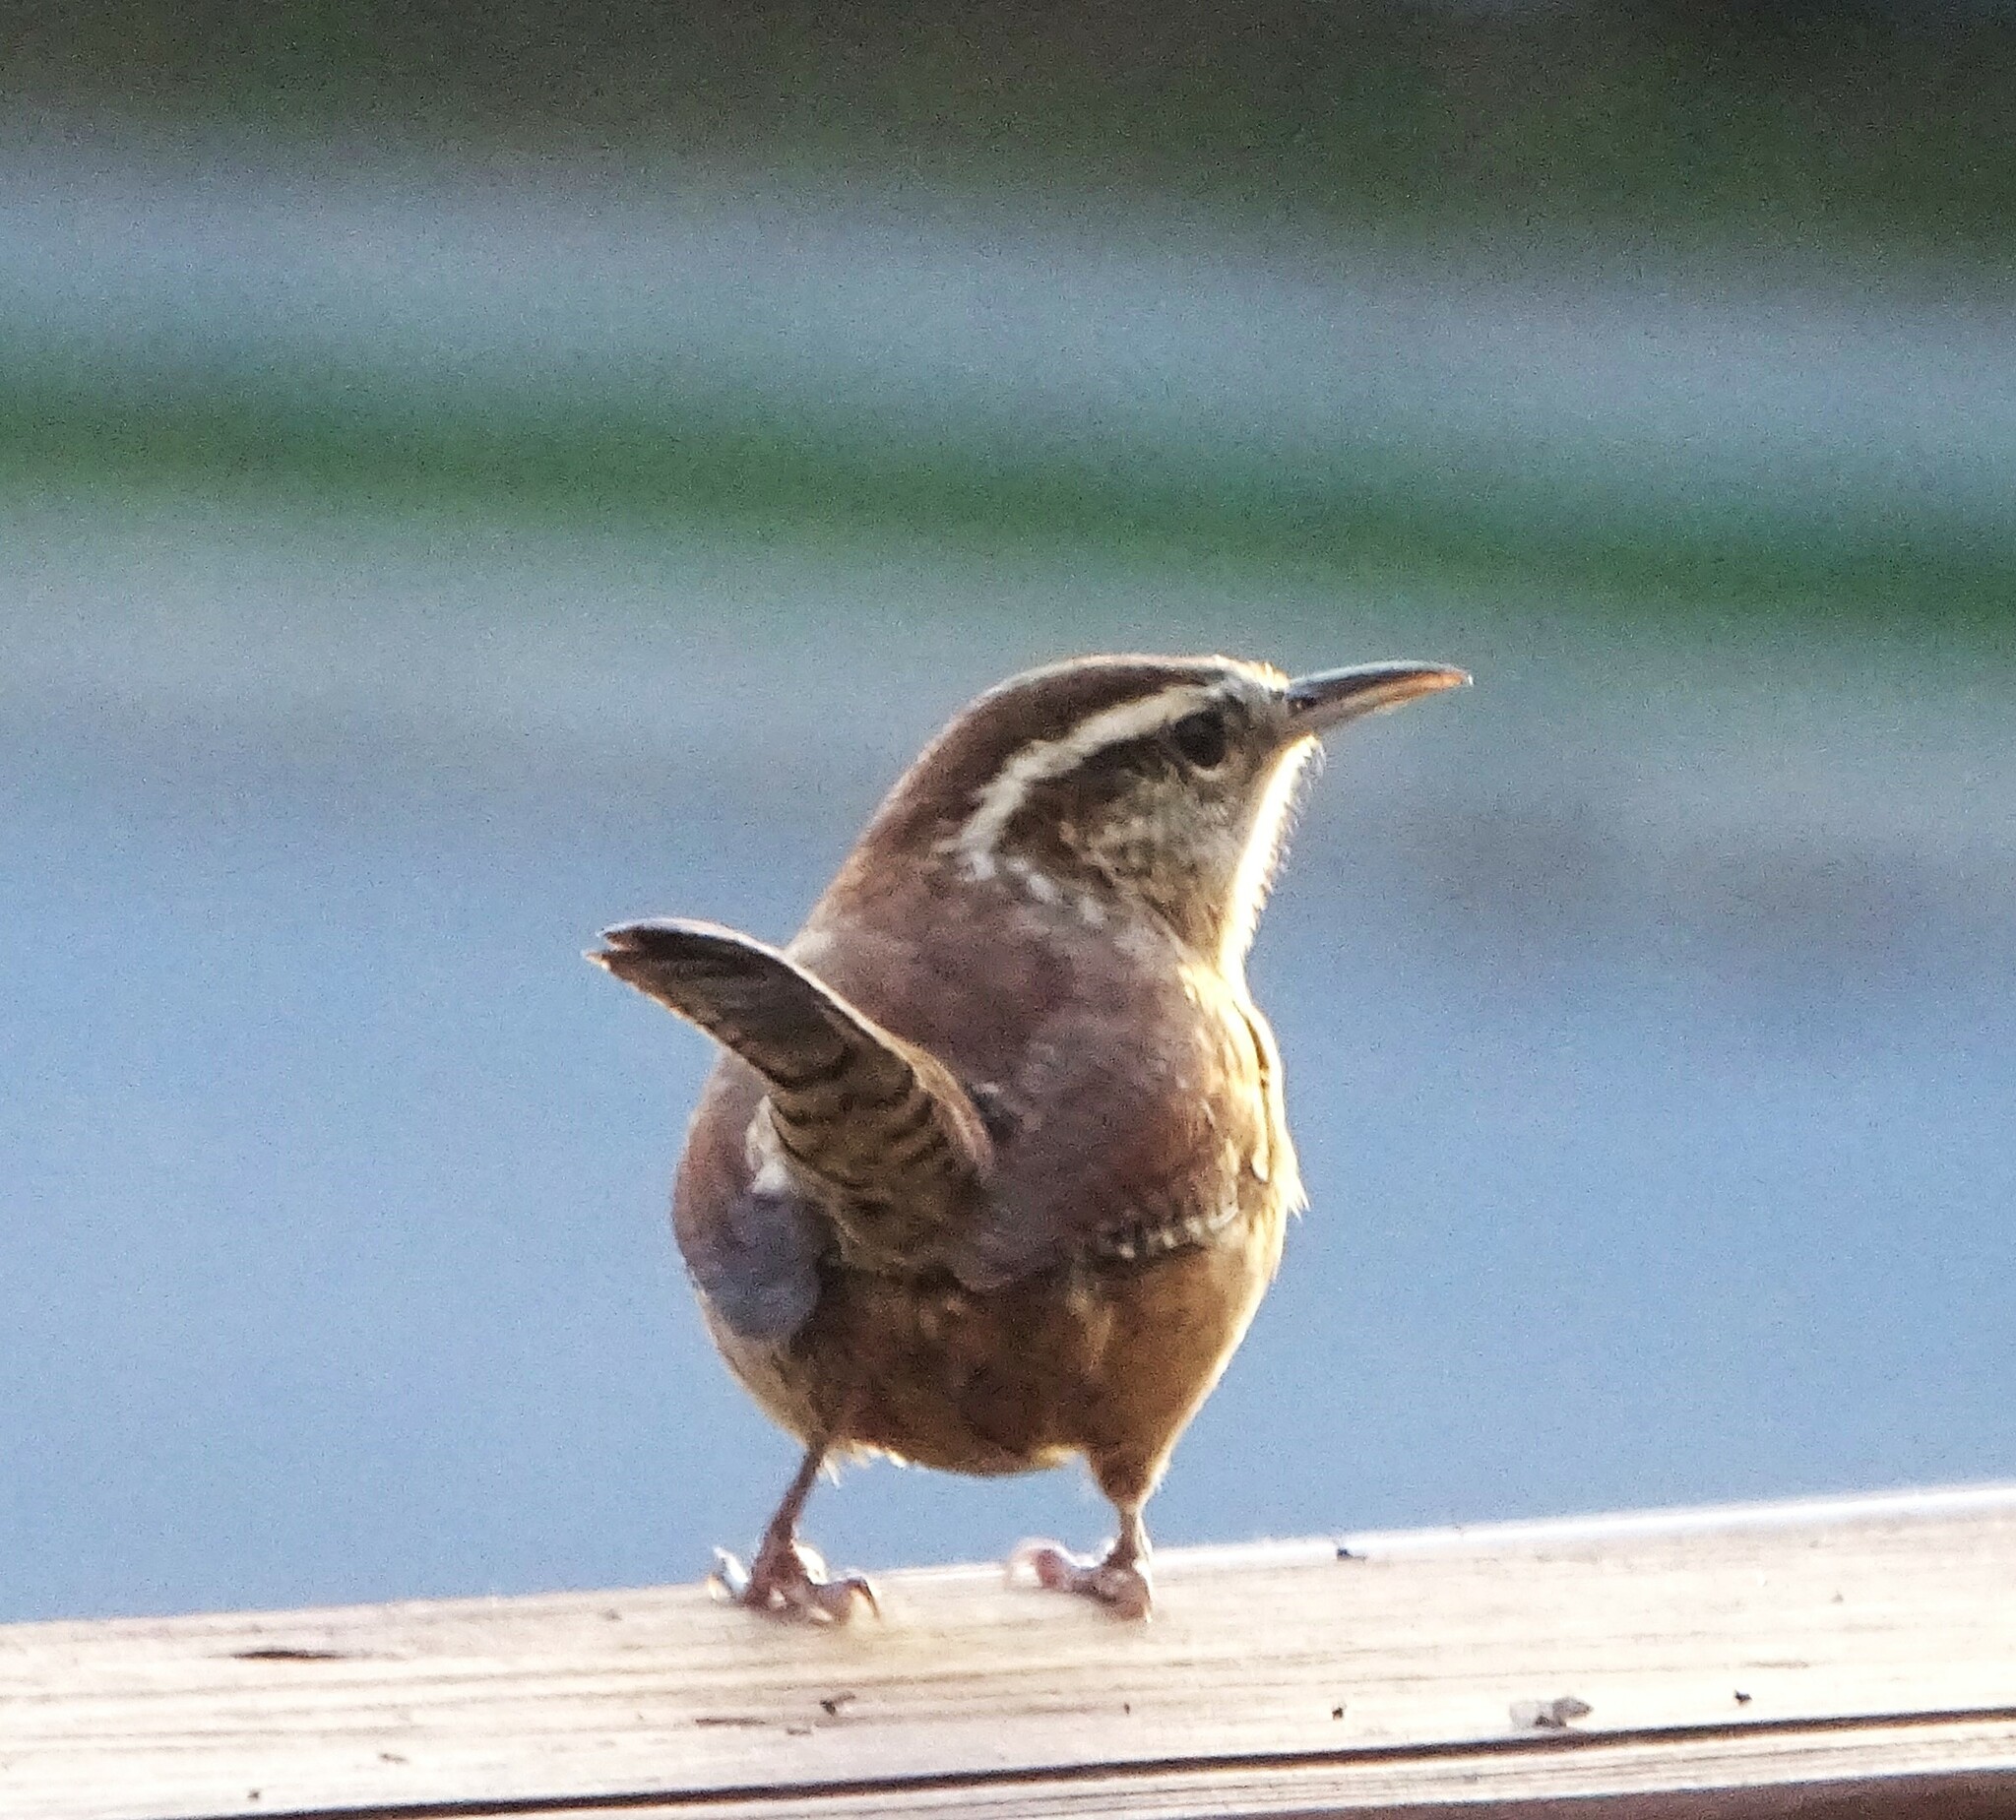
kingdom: Animalia
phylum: Chordata
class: Aves
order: Passeriformes
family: Troglodytidae
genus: Thryothorus
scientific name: Thryothorus ludovicianus
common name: Carolina wren
